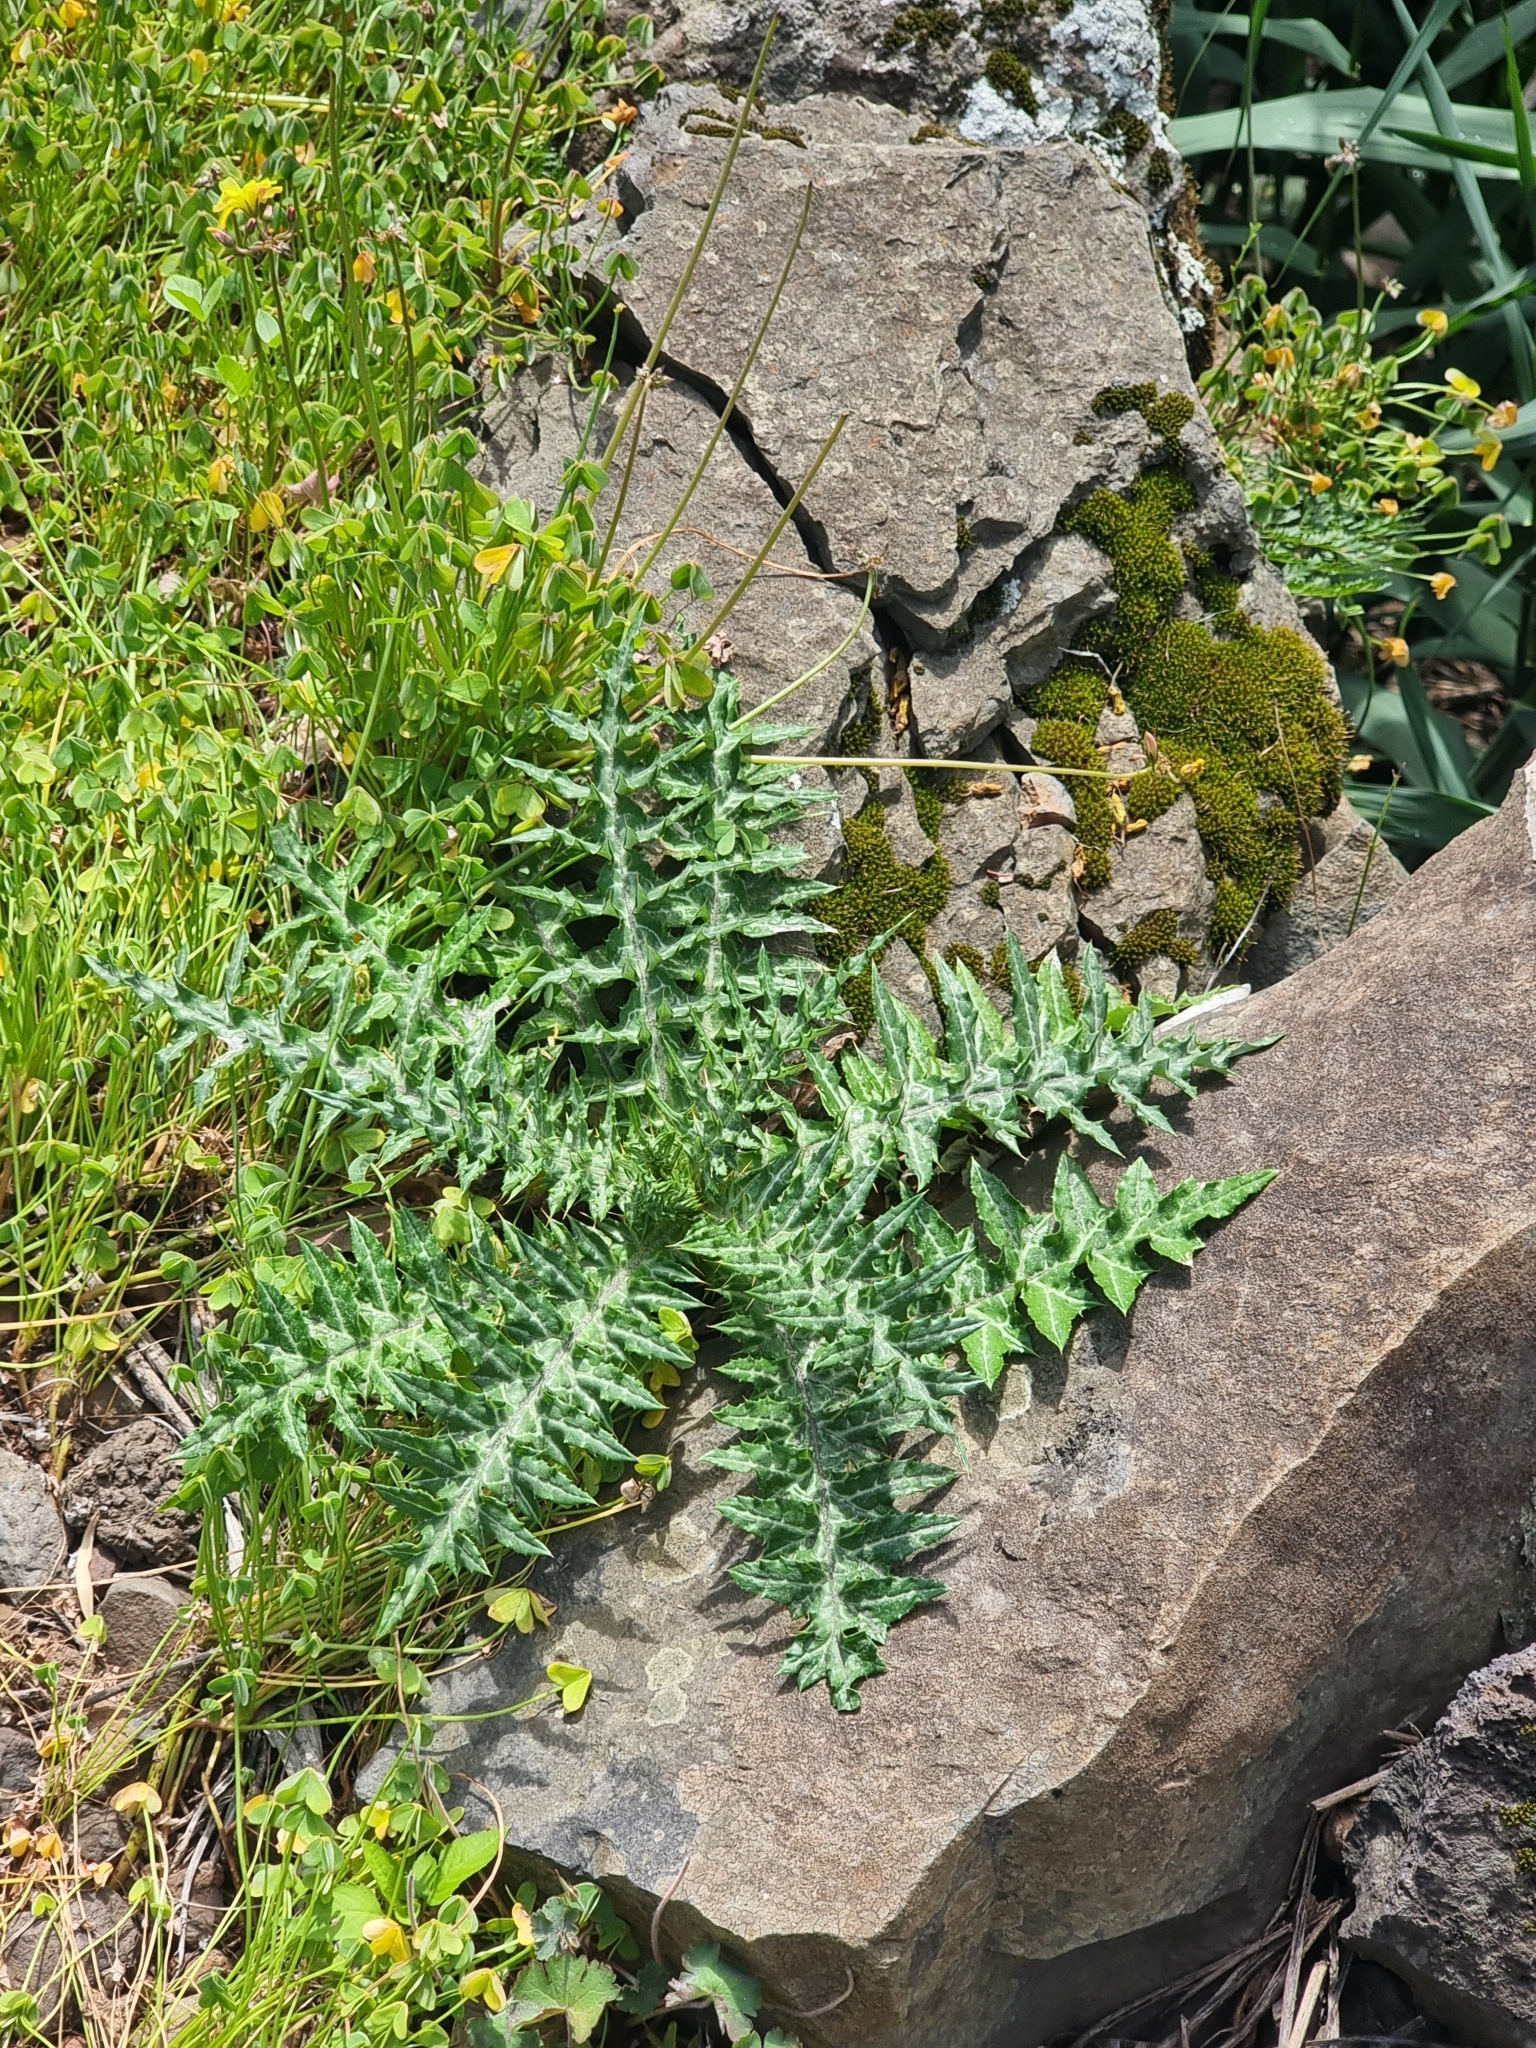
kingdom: Plantae
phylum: Tracheophyta
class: Magnoliopsida
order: Asterales
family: Asteraceae
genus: Galactites
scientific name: Galactites tomentosa
